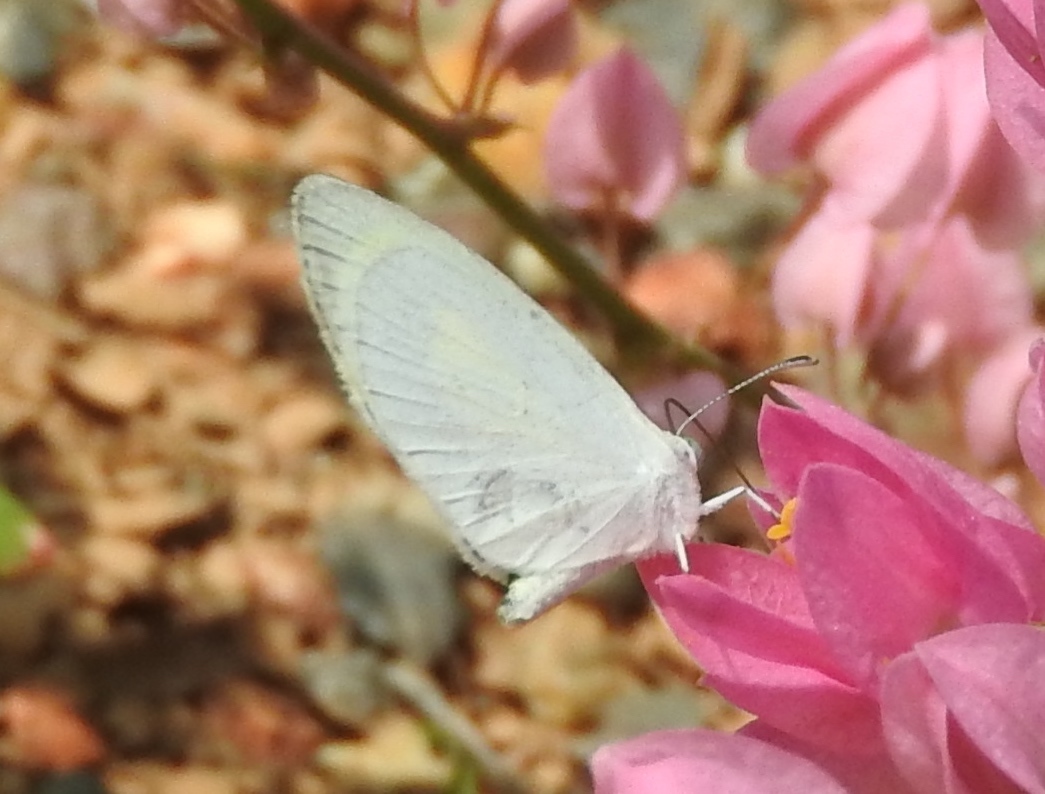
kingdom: Animalia
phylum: Arthropoda
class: Insecta
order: Lepidoptera
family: Pieridae
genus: Eurema
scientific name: Eurema daira
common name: Barred sulphur
